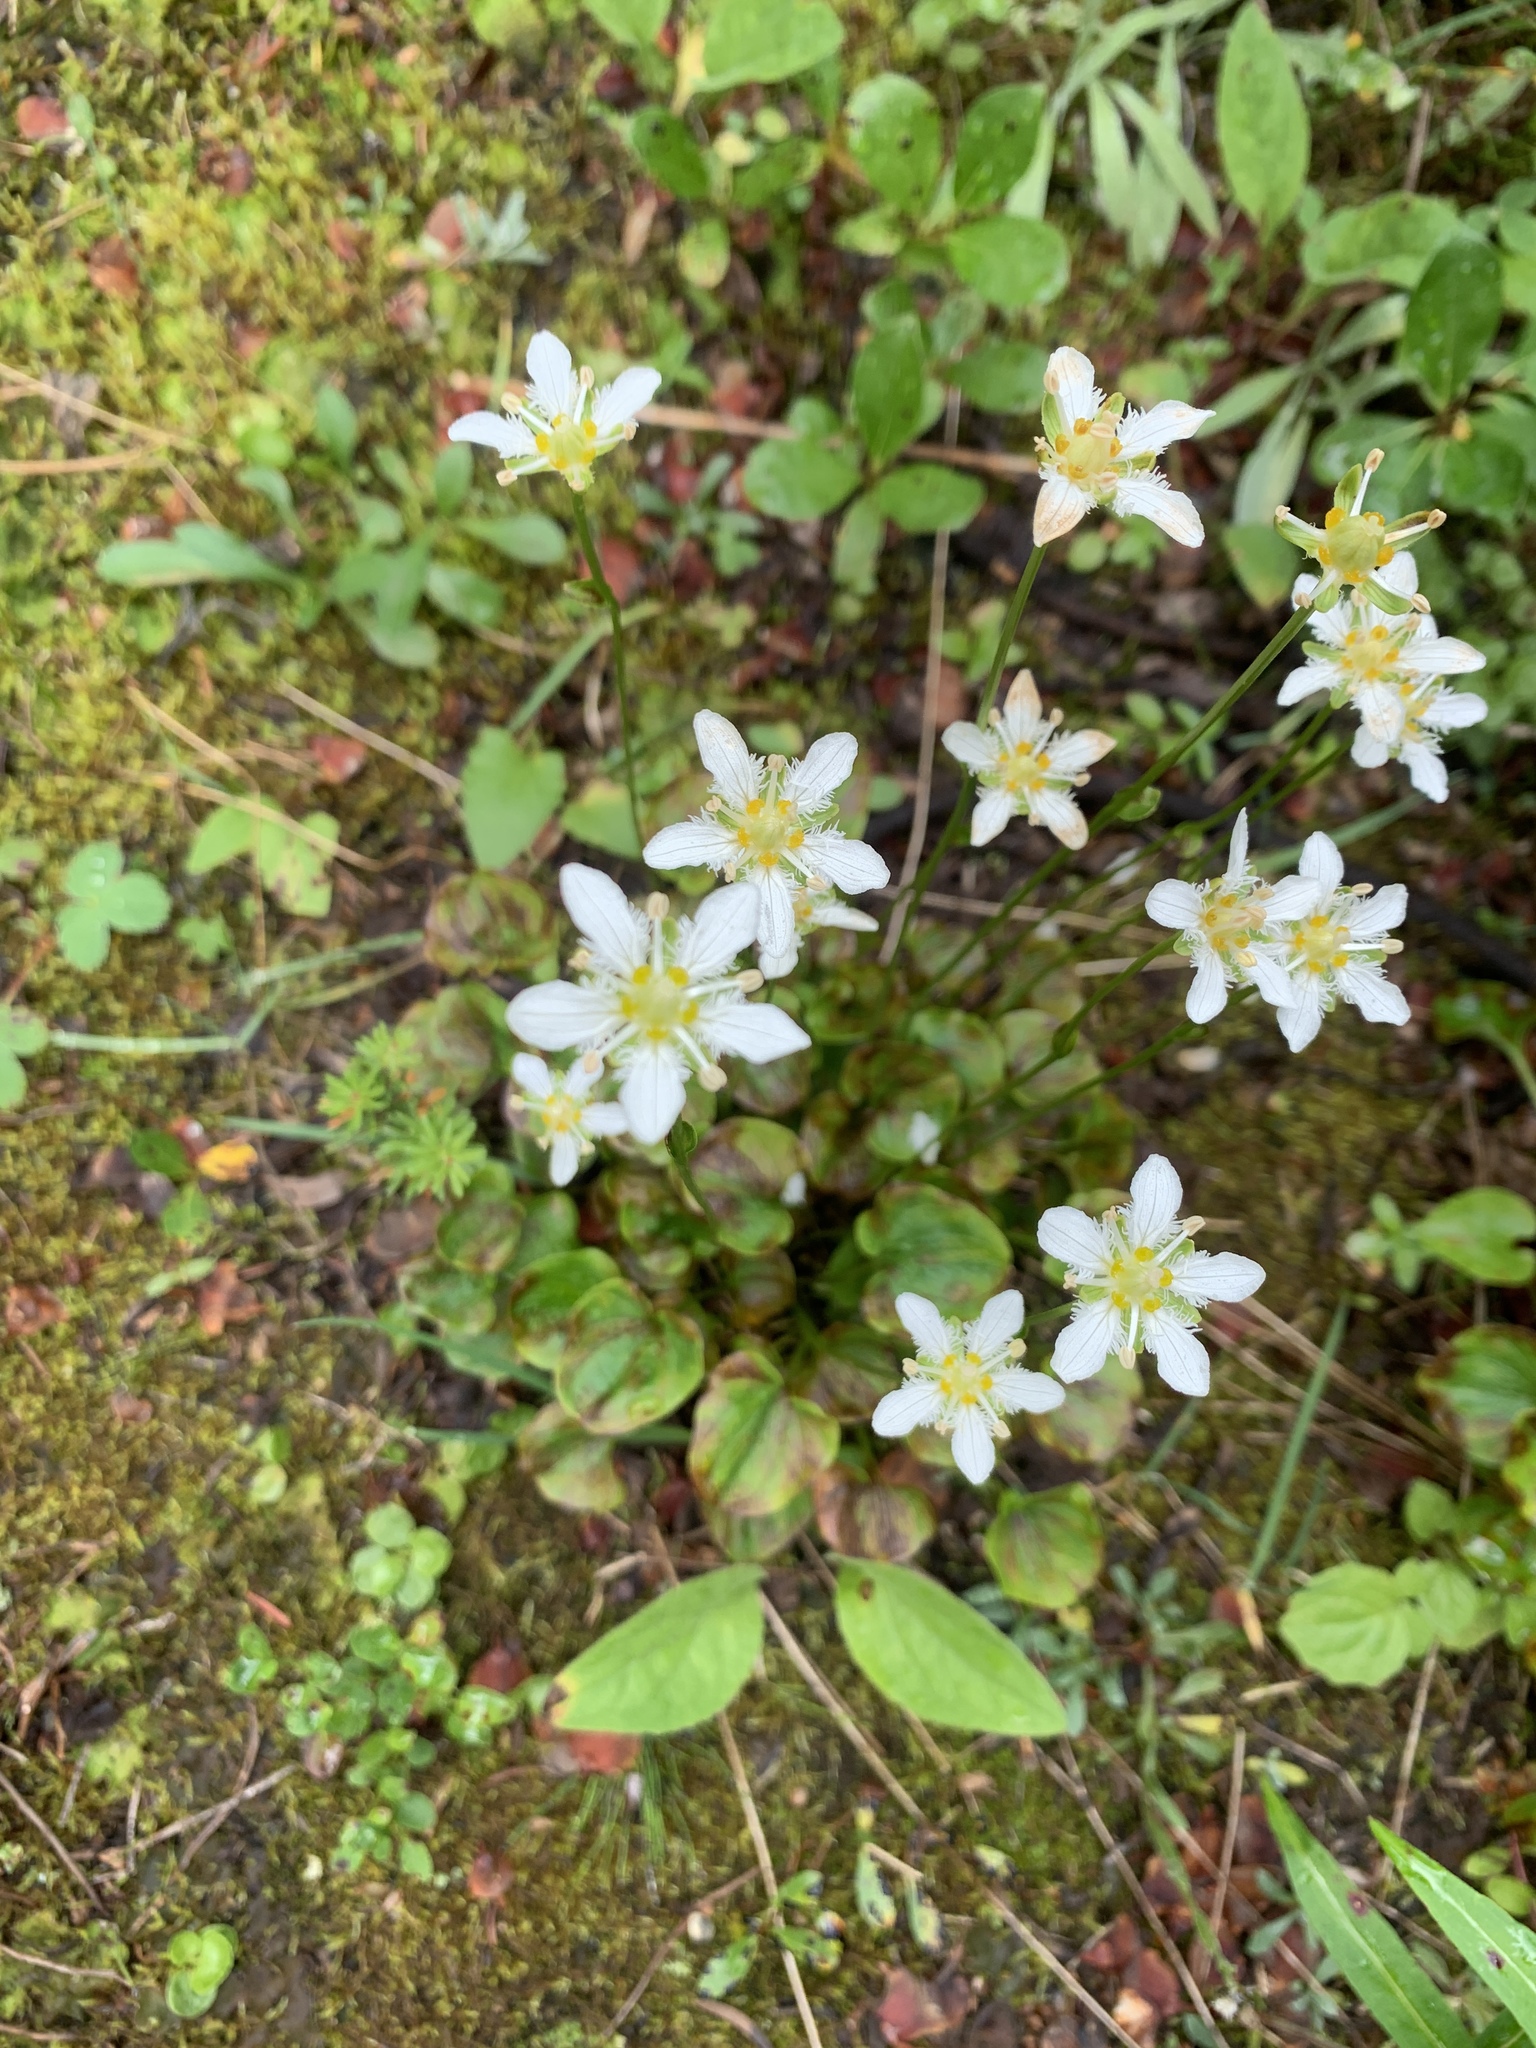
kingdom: Plantae
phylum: Tracheophyta
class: Magnoliopsida
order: Celastrales
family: Parnassiaceae
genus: Parnassia
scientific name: Parnassia fimbriata
